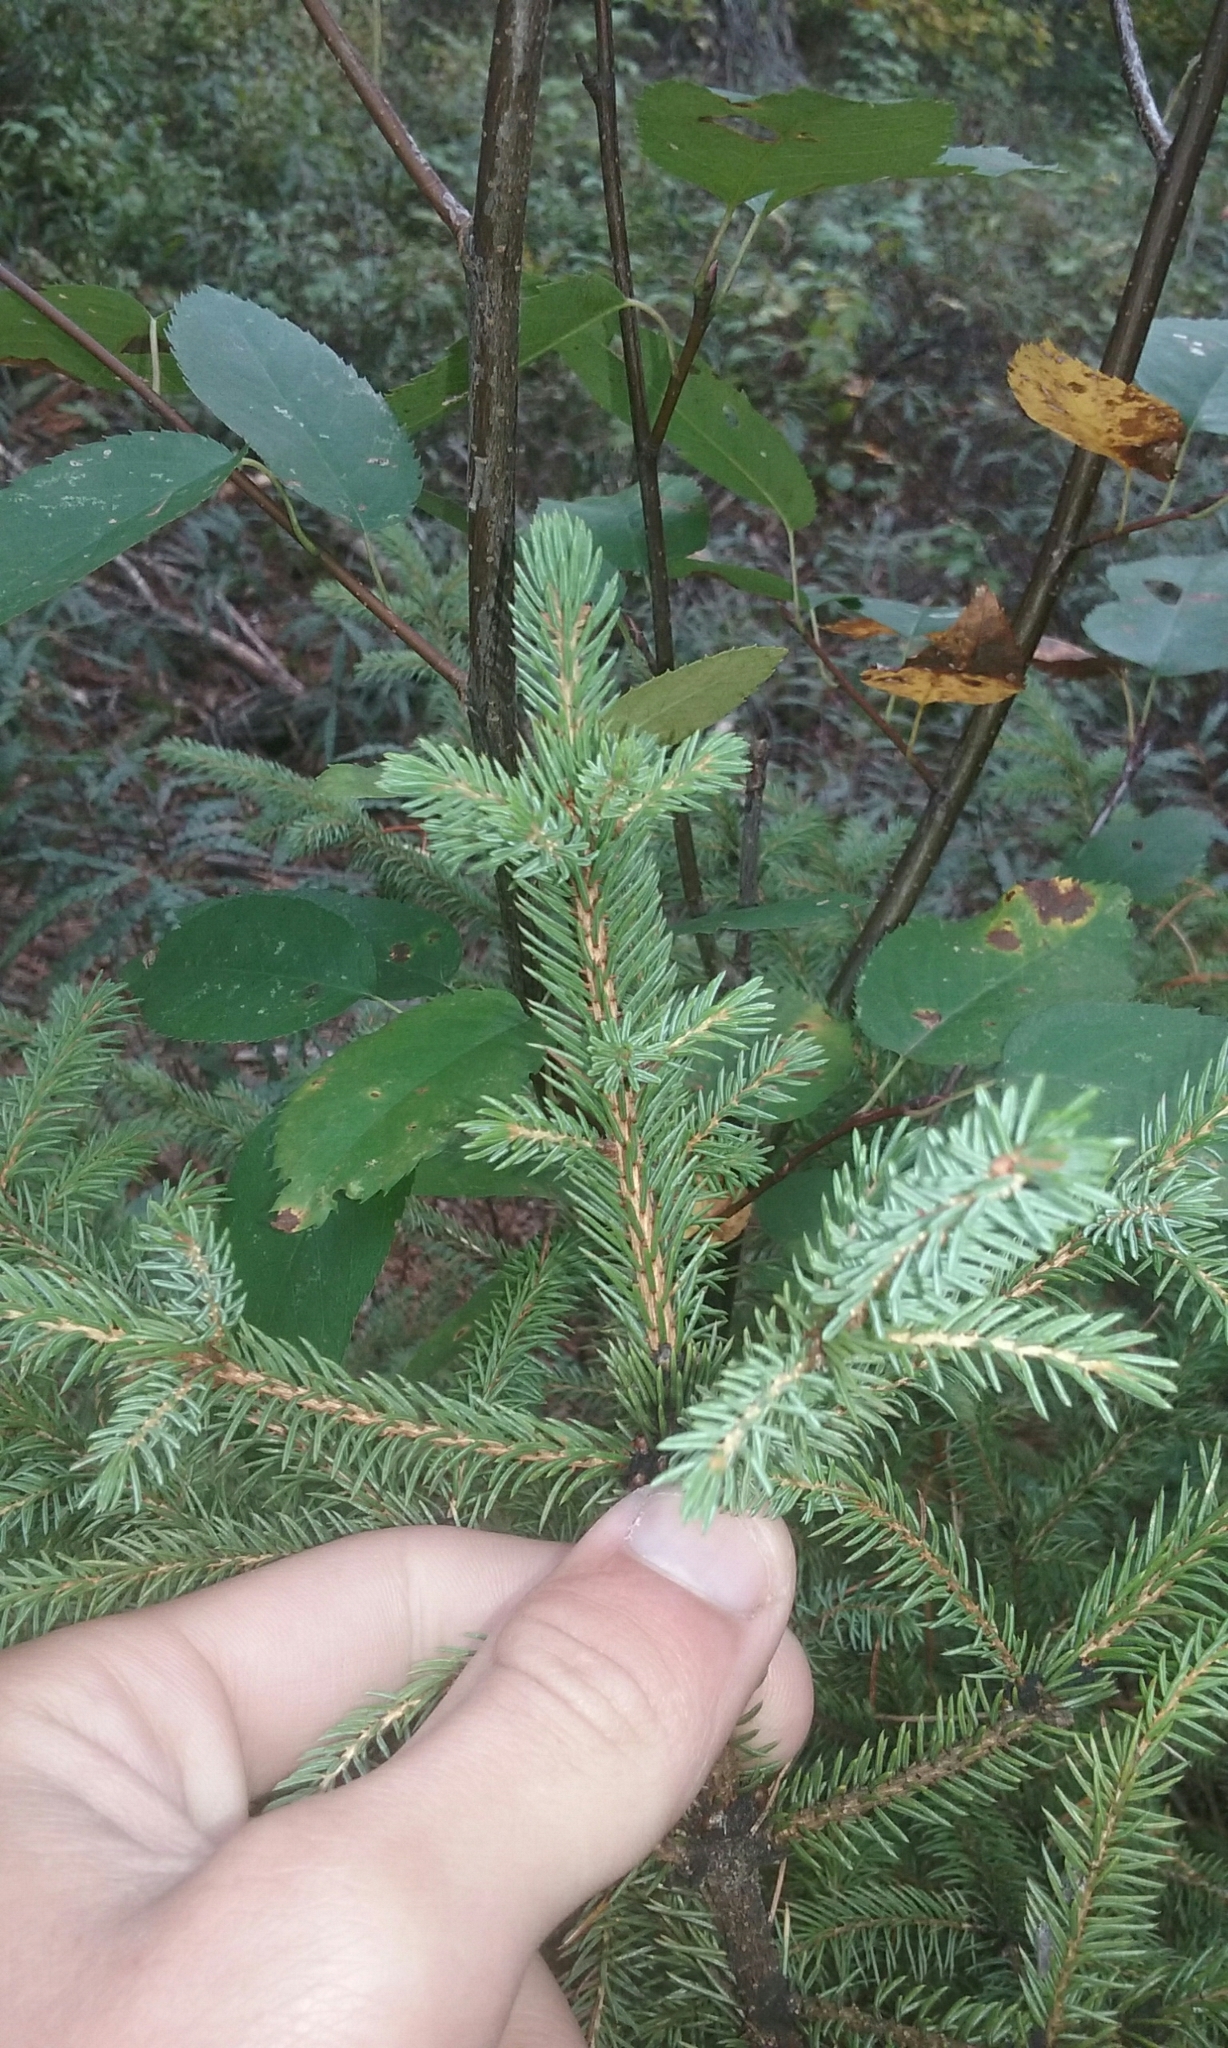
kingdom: Plantae
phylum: Tracheophyta
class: Pinopsida
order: Pinales
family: Pinaceae
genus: Picea
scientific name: Picea mariana
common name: Black spruce
